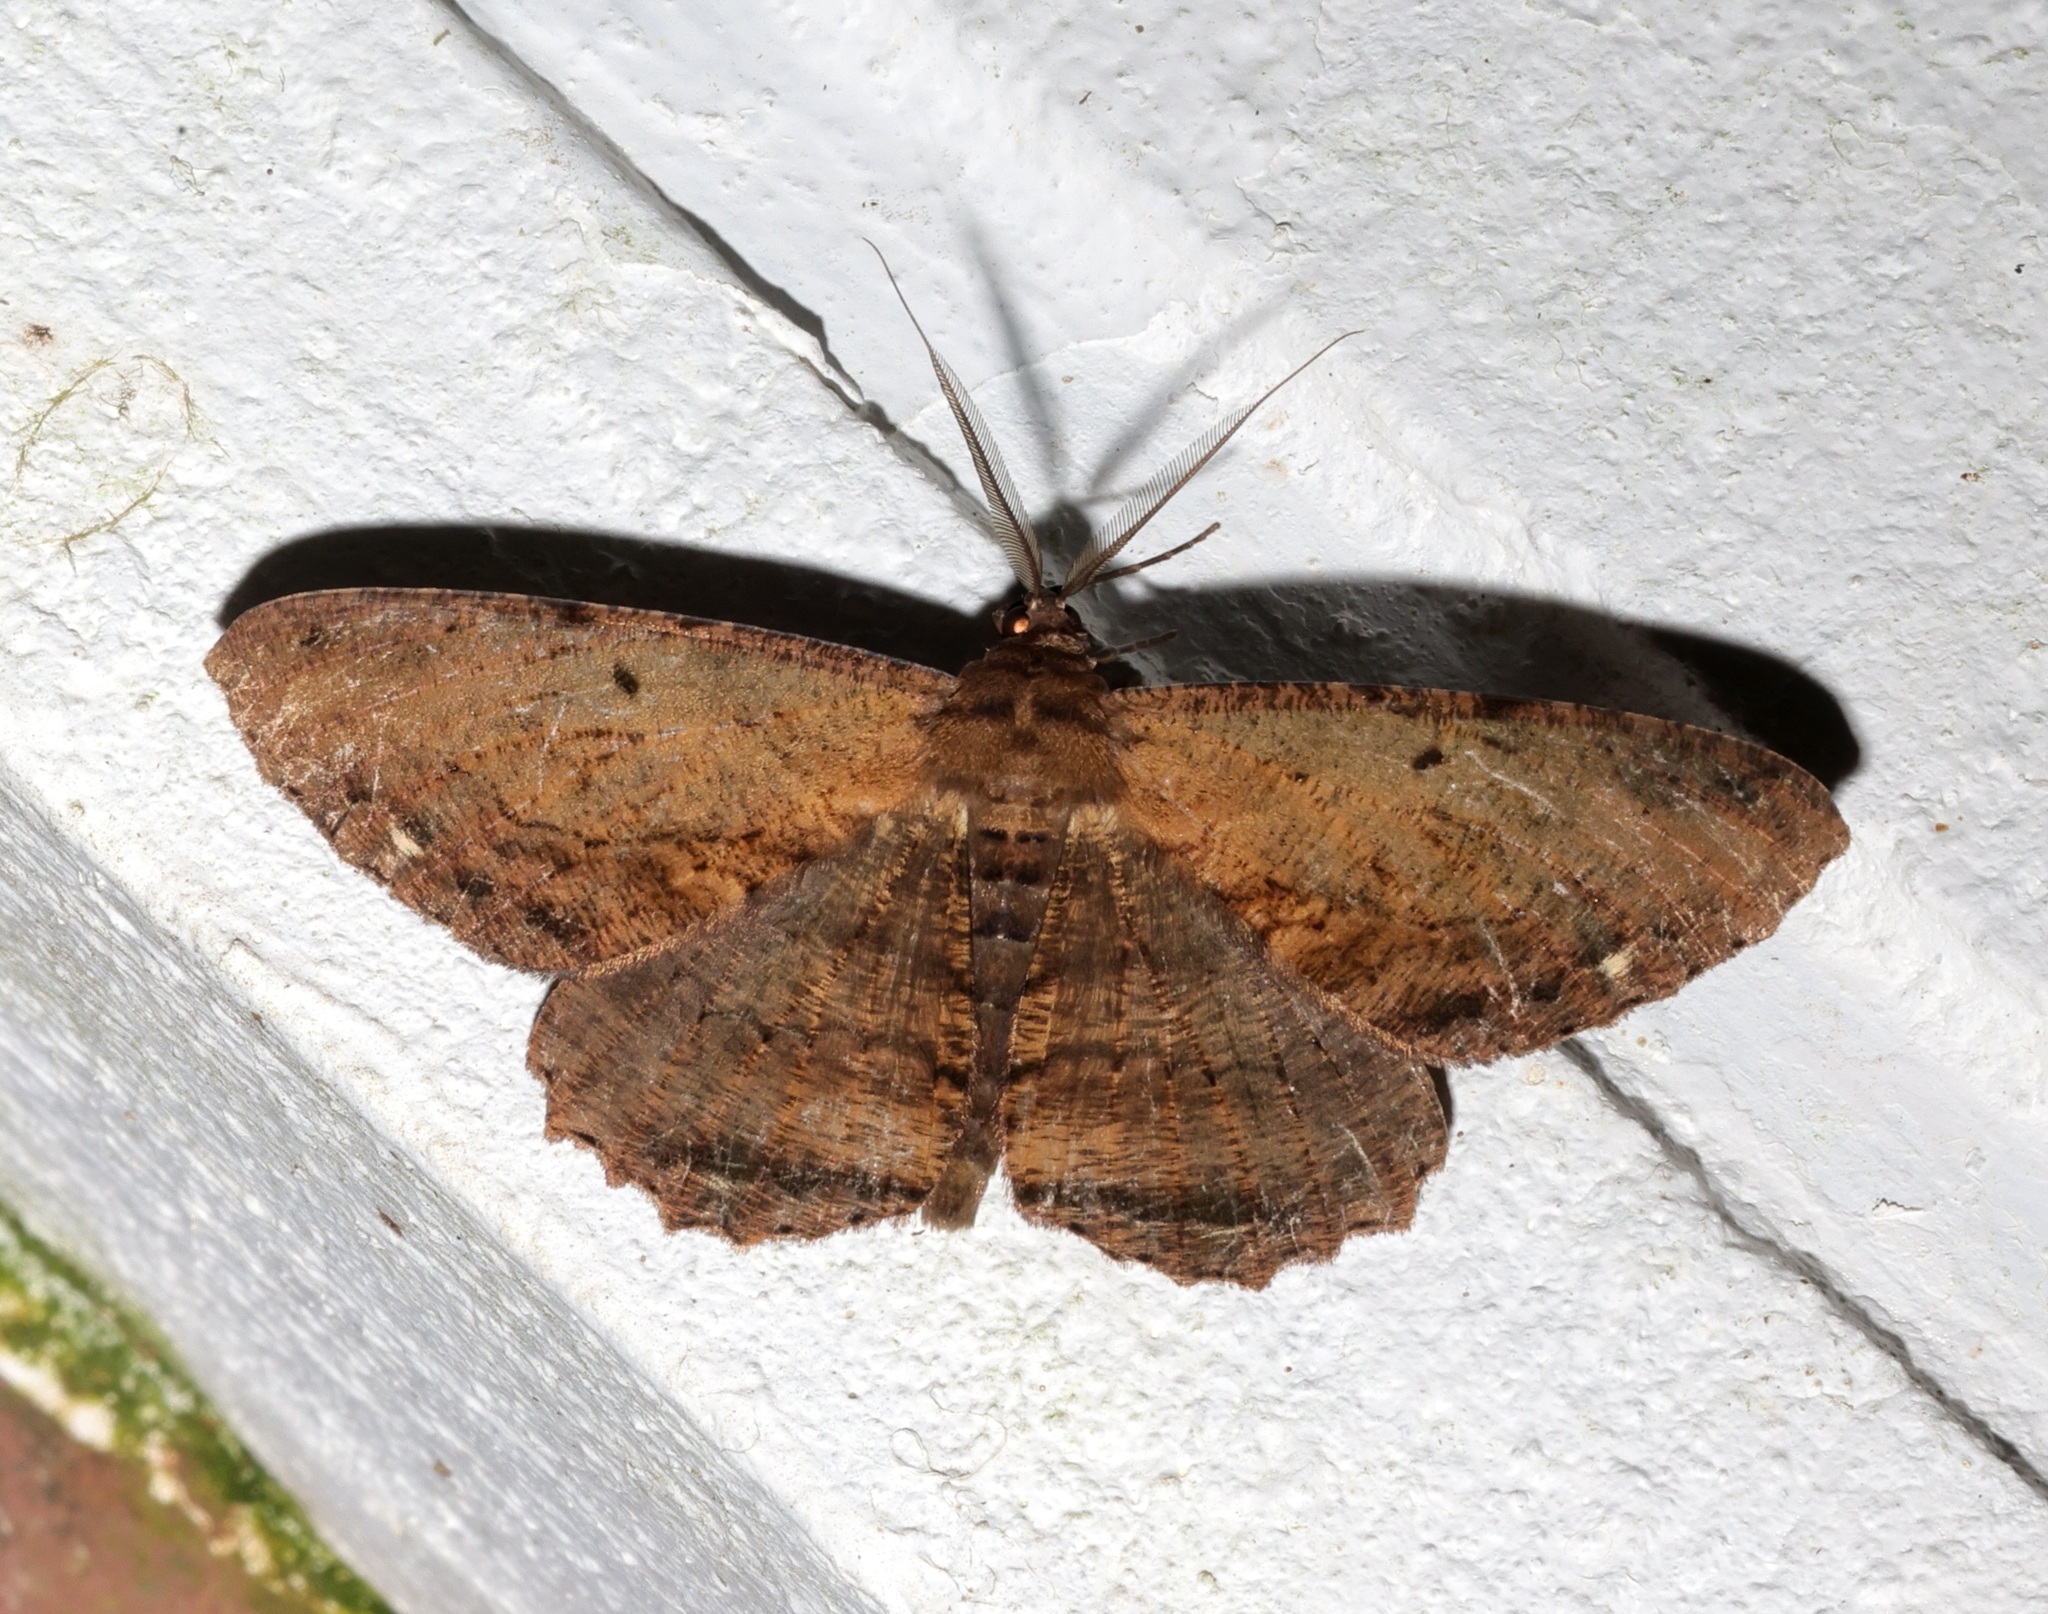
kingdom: Animalia
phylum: Arthropoda
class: Insecta
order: Lepidoptera
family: Geometridae
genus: Chorodna
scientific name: Chorodna creataria
